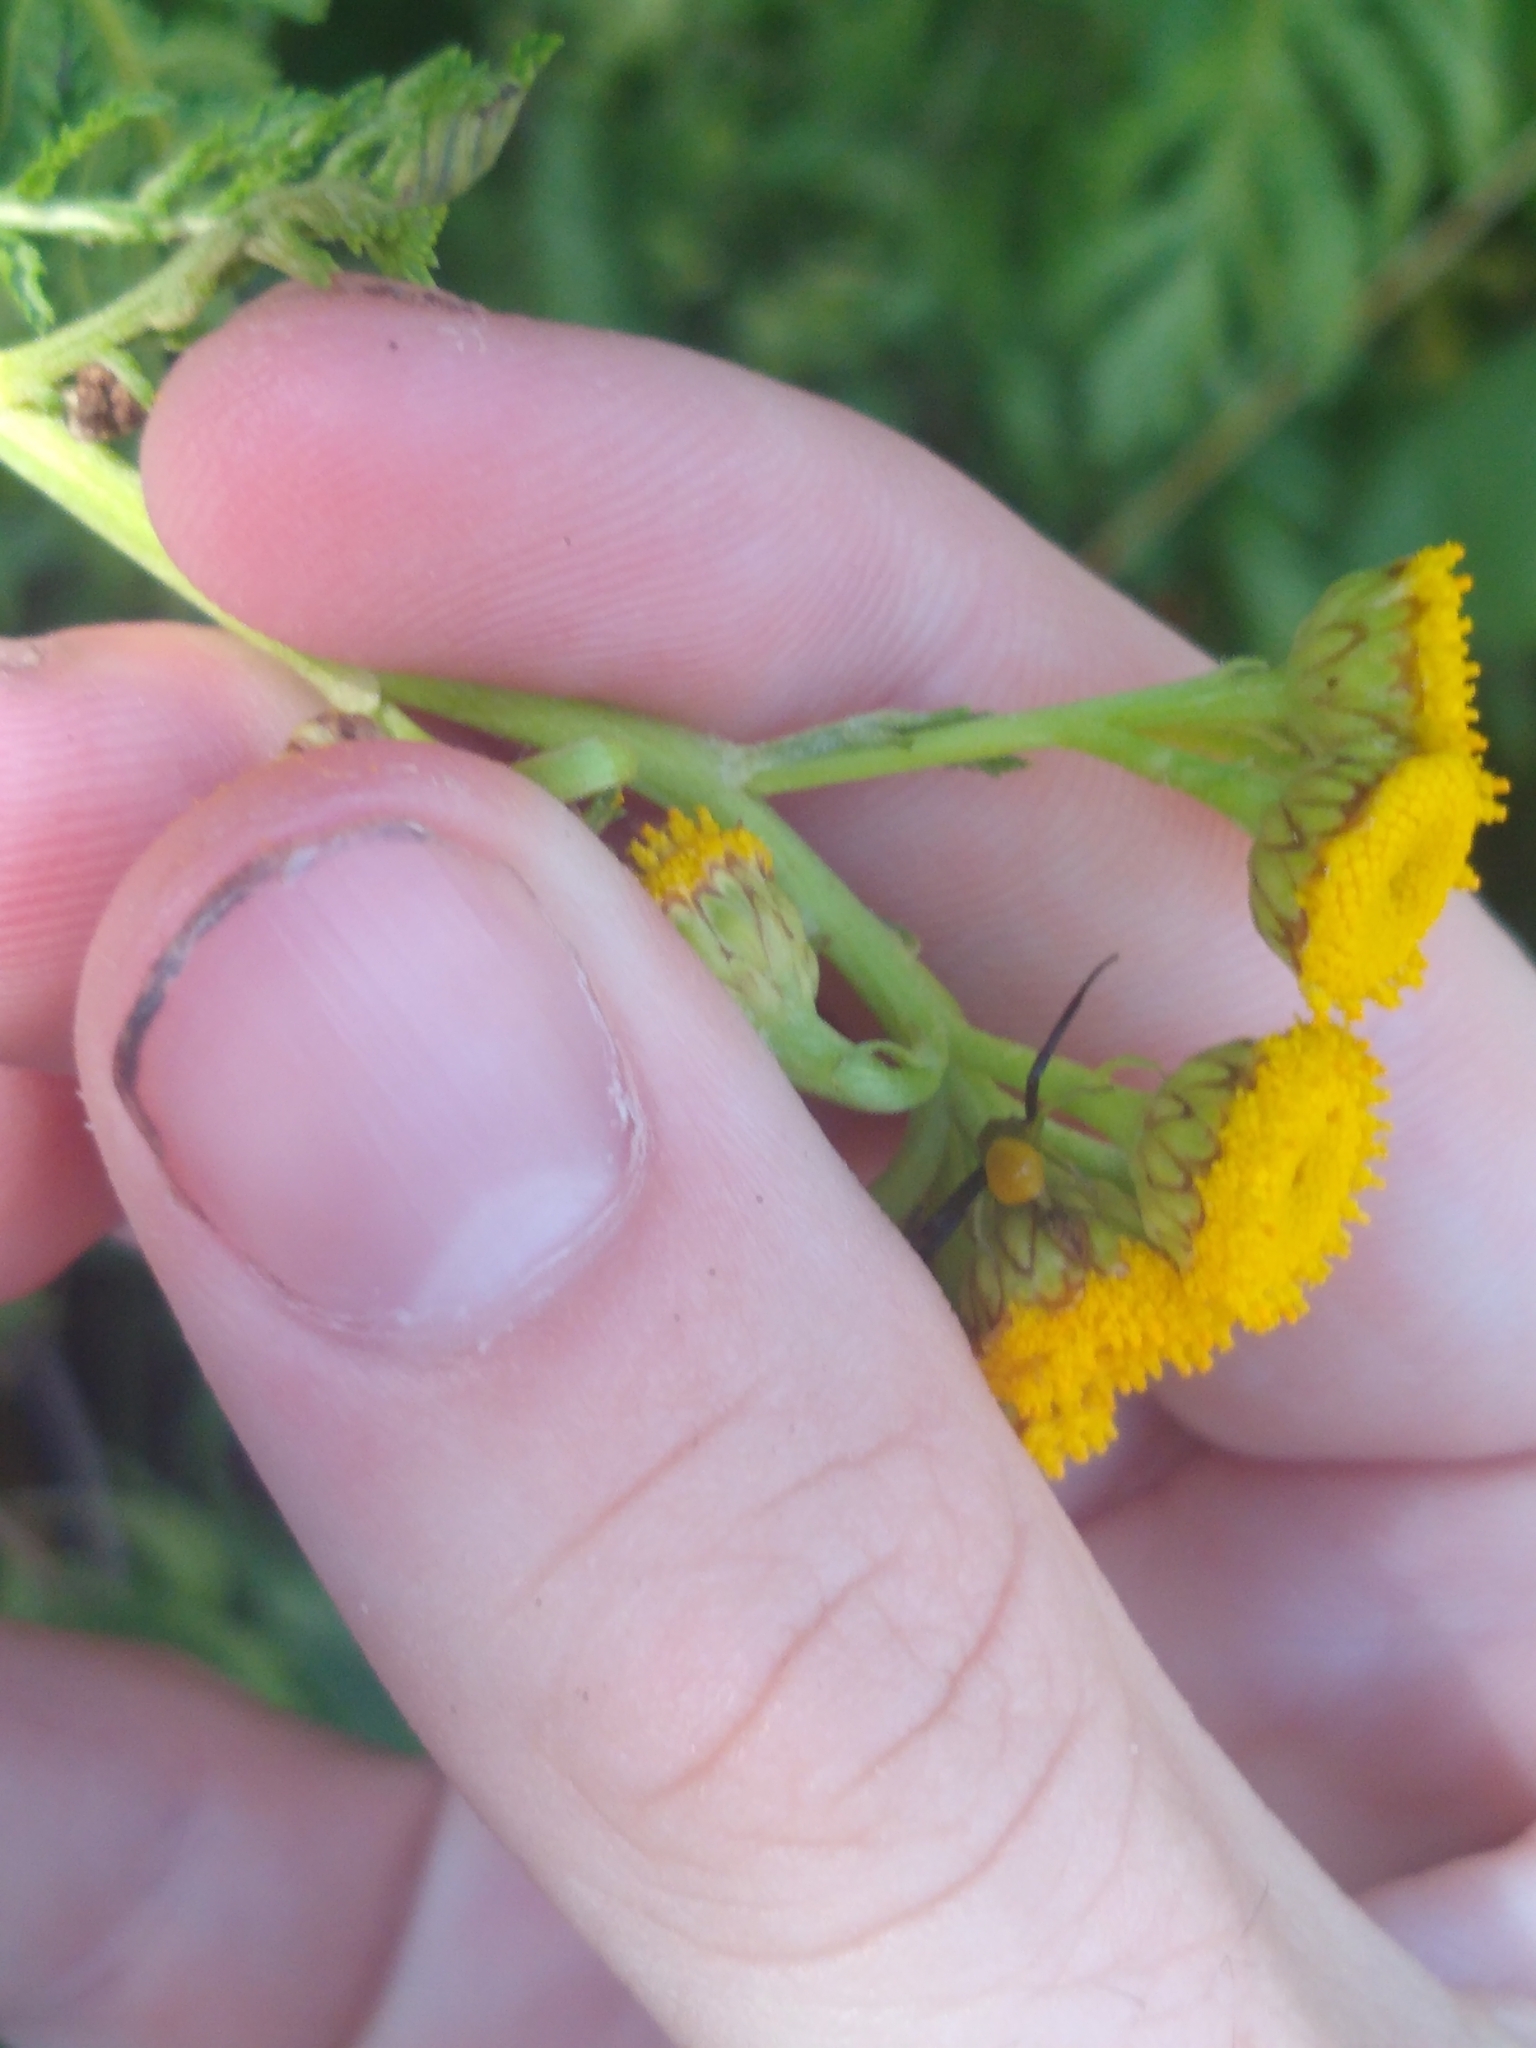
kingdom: Animalia
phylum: Arthropoda
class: Arachnida
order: Araneae
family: Thomisidae
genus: Misumenoides
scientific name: Misumenoides formosipes
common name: White-banded crab spider
